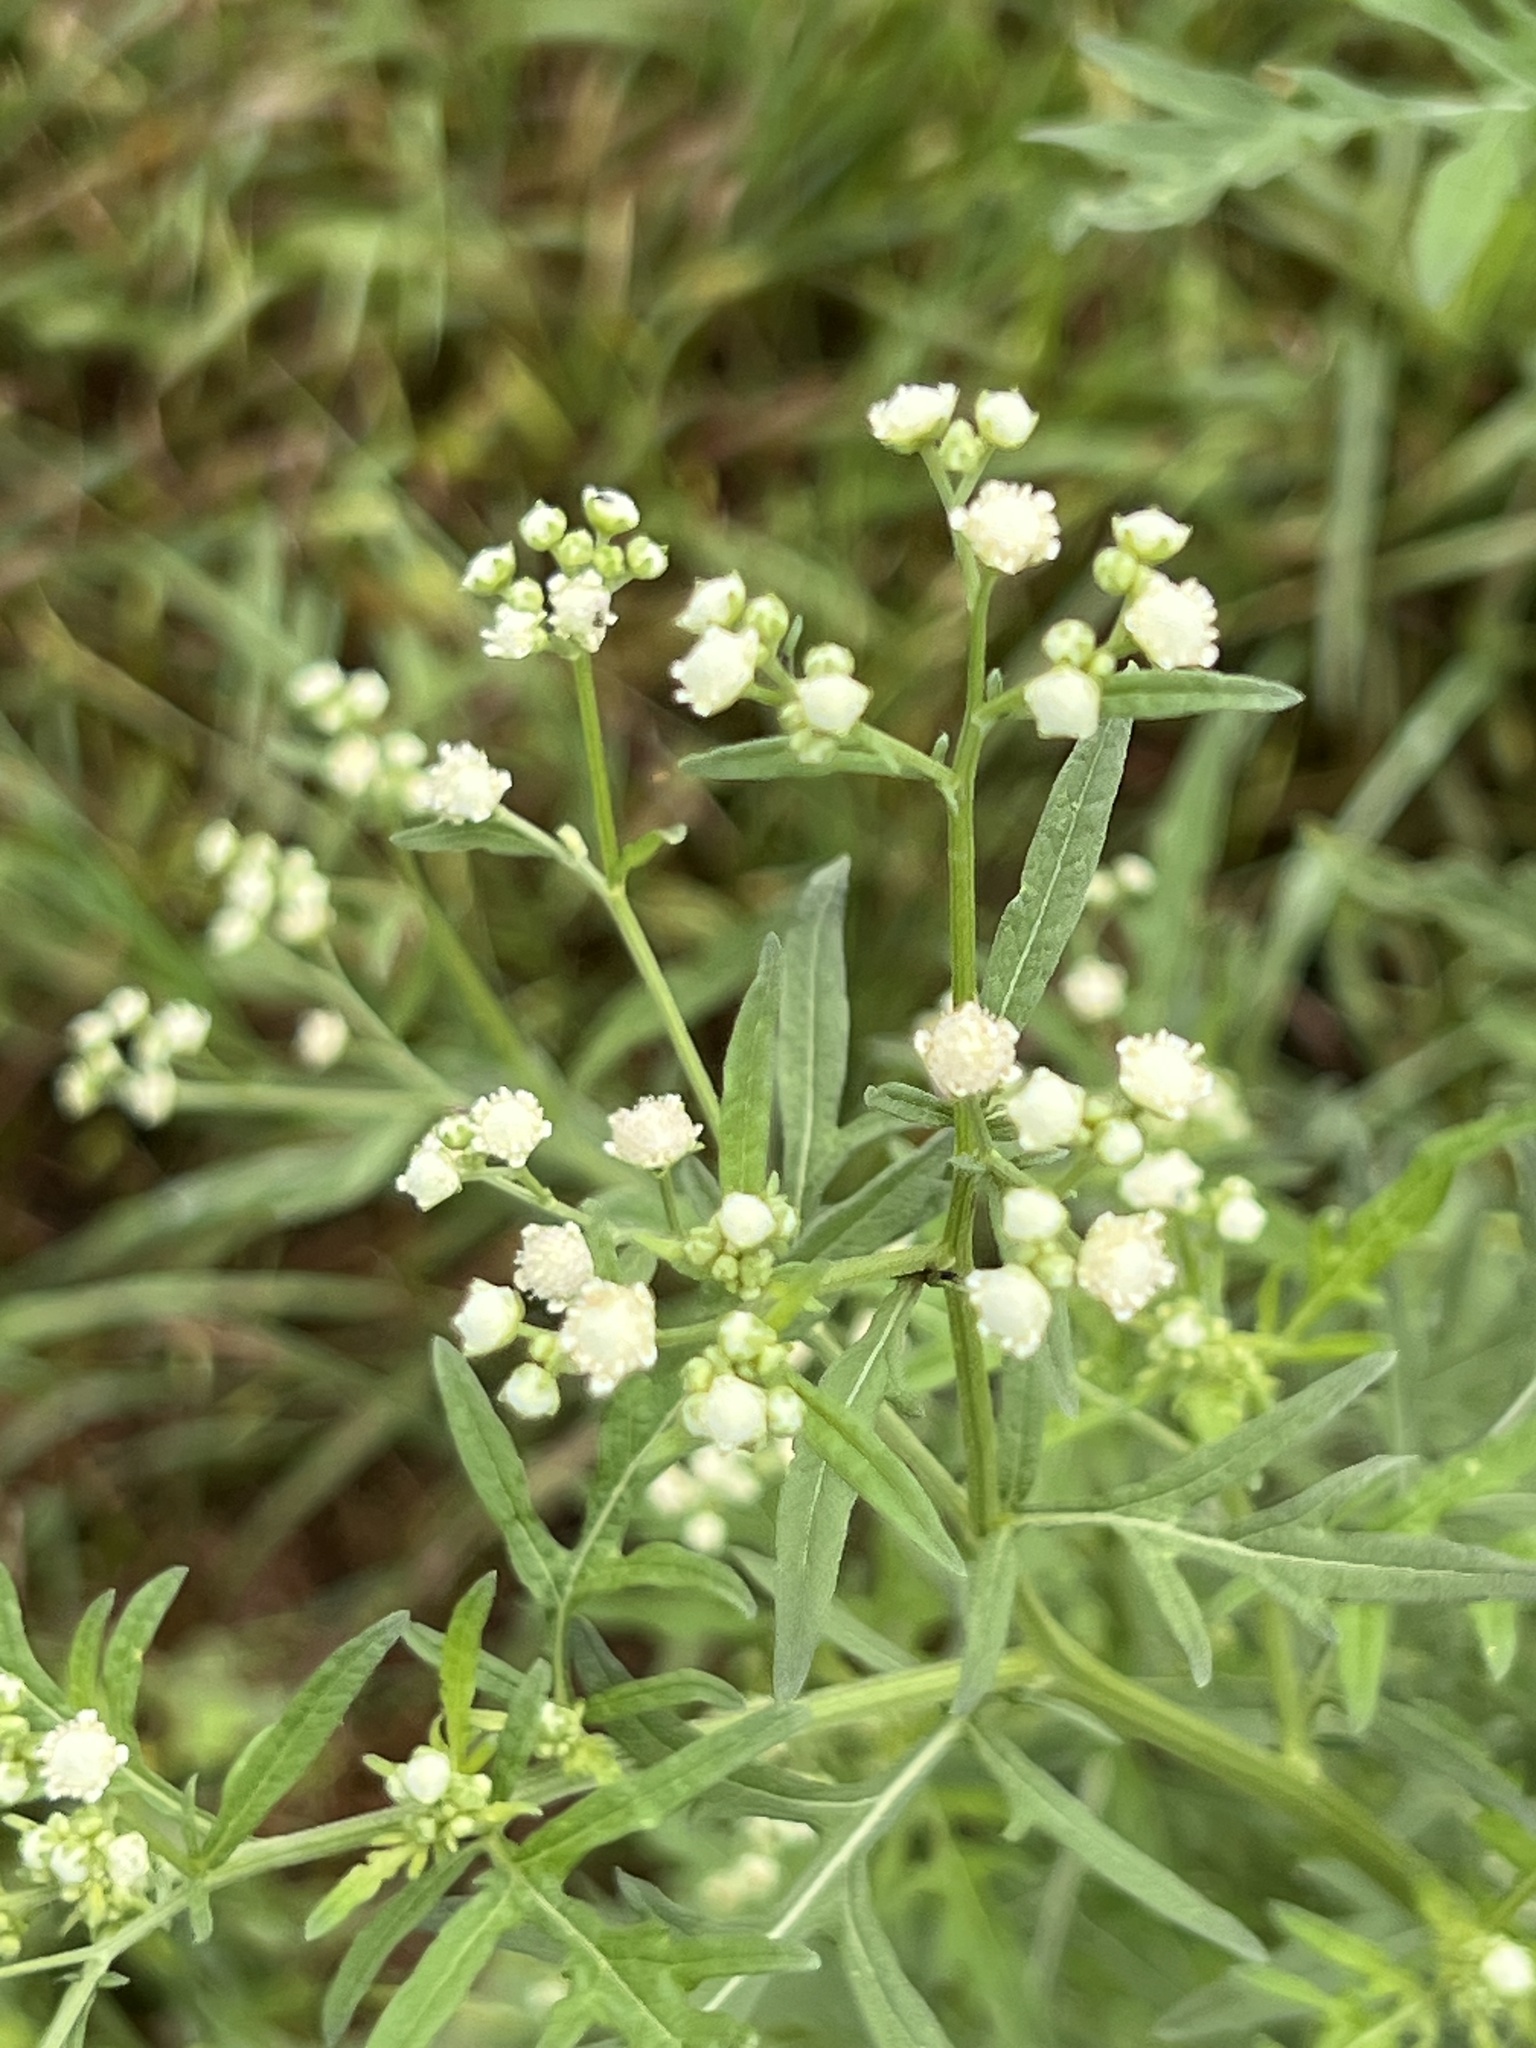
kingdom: Plantae
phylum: Tracheophyta
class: Magnoliopsida
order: Asterales
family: Asteraceae
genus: Parthenium
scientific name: Parthenium hysterophorus
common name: Santa maria feverfew
